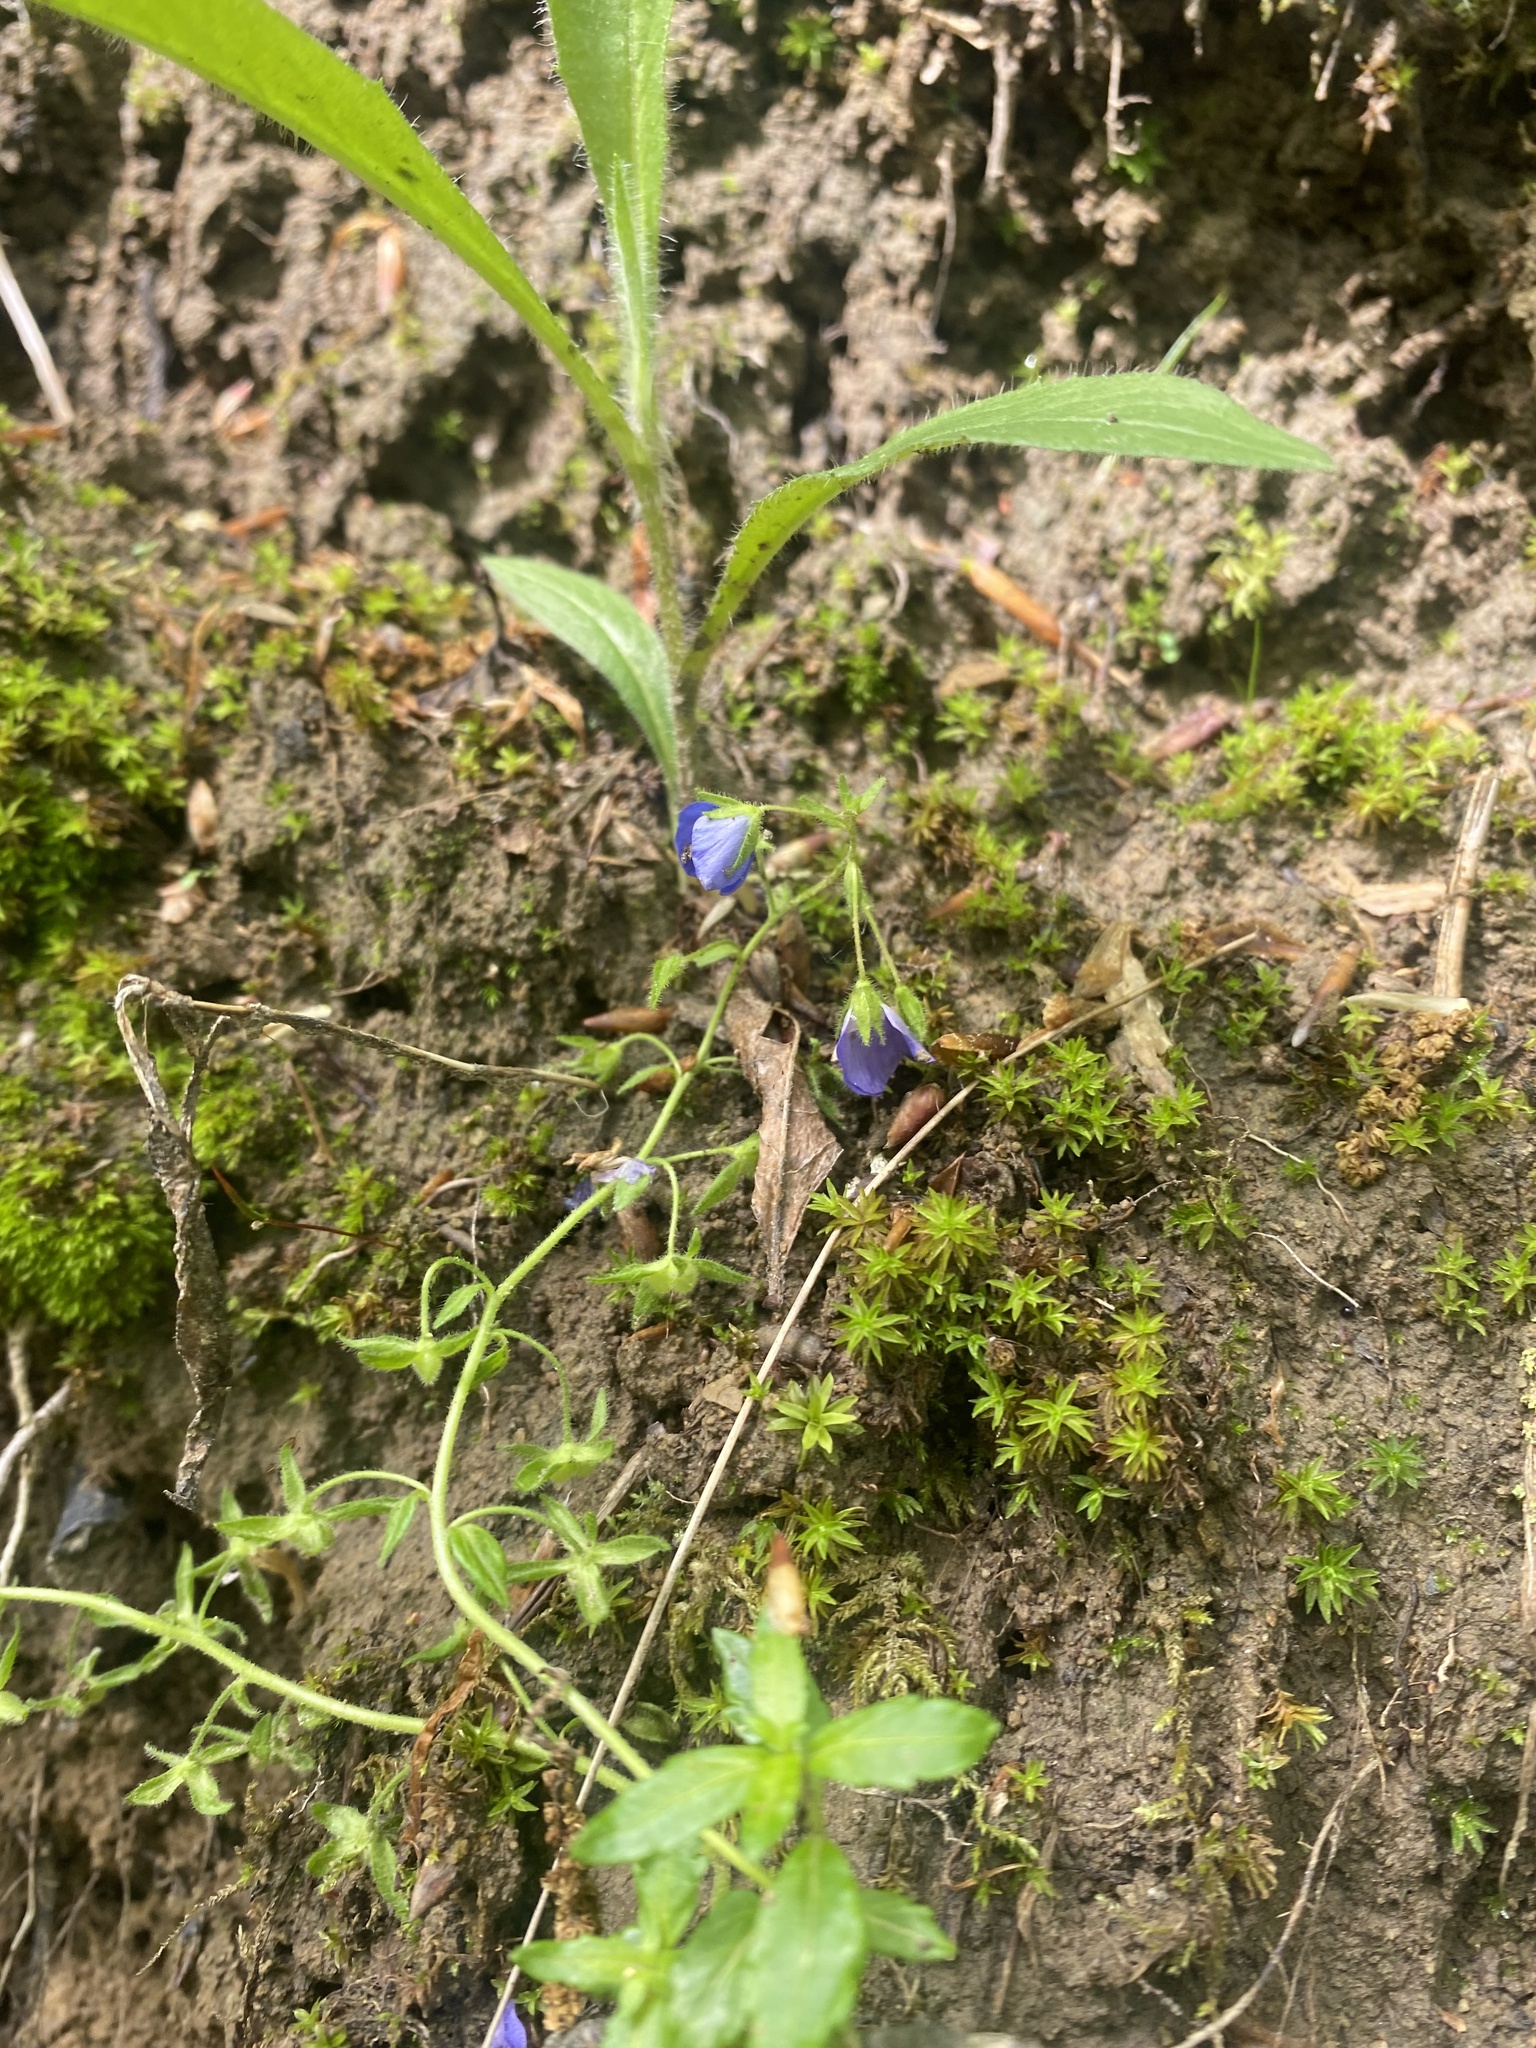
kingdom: Plantae
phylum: Tracheophyta
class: Magnoliopsida
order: Lamiales
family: Plantaginaceae
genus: Veronica
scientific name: Veronica
